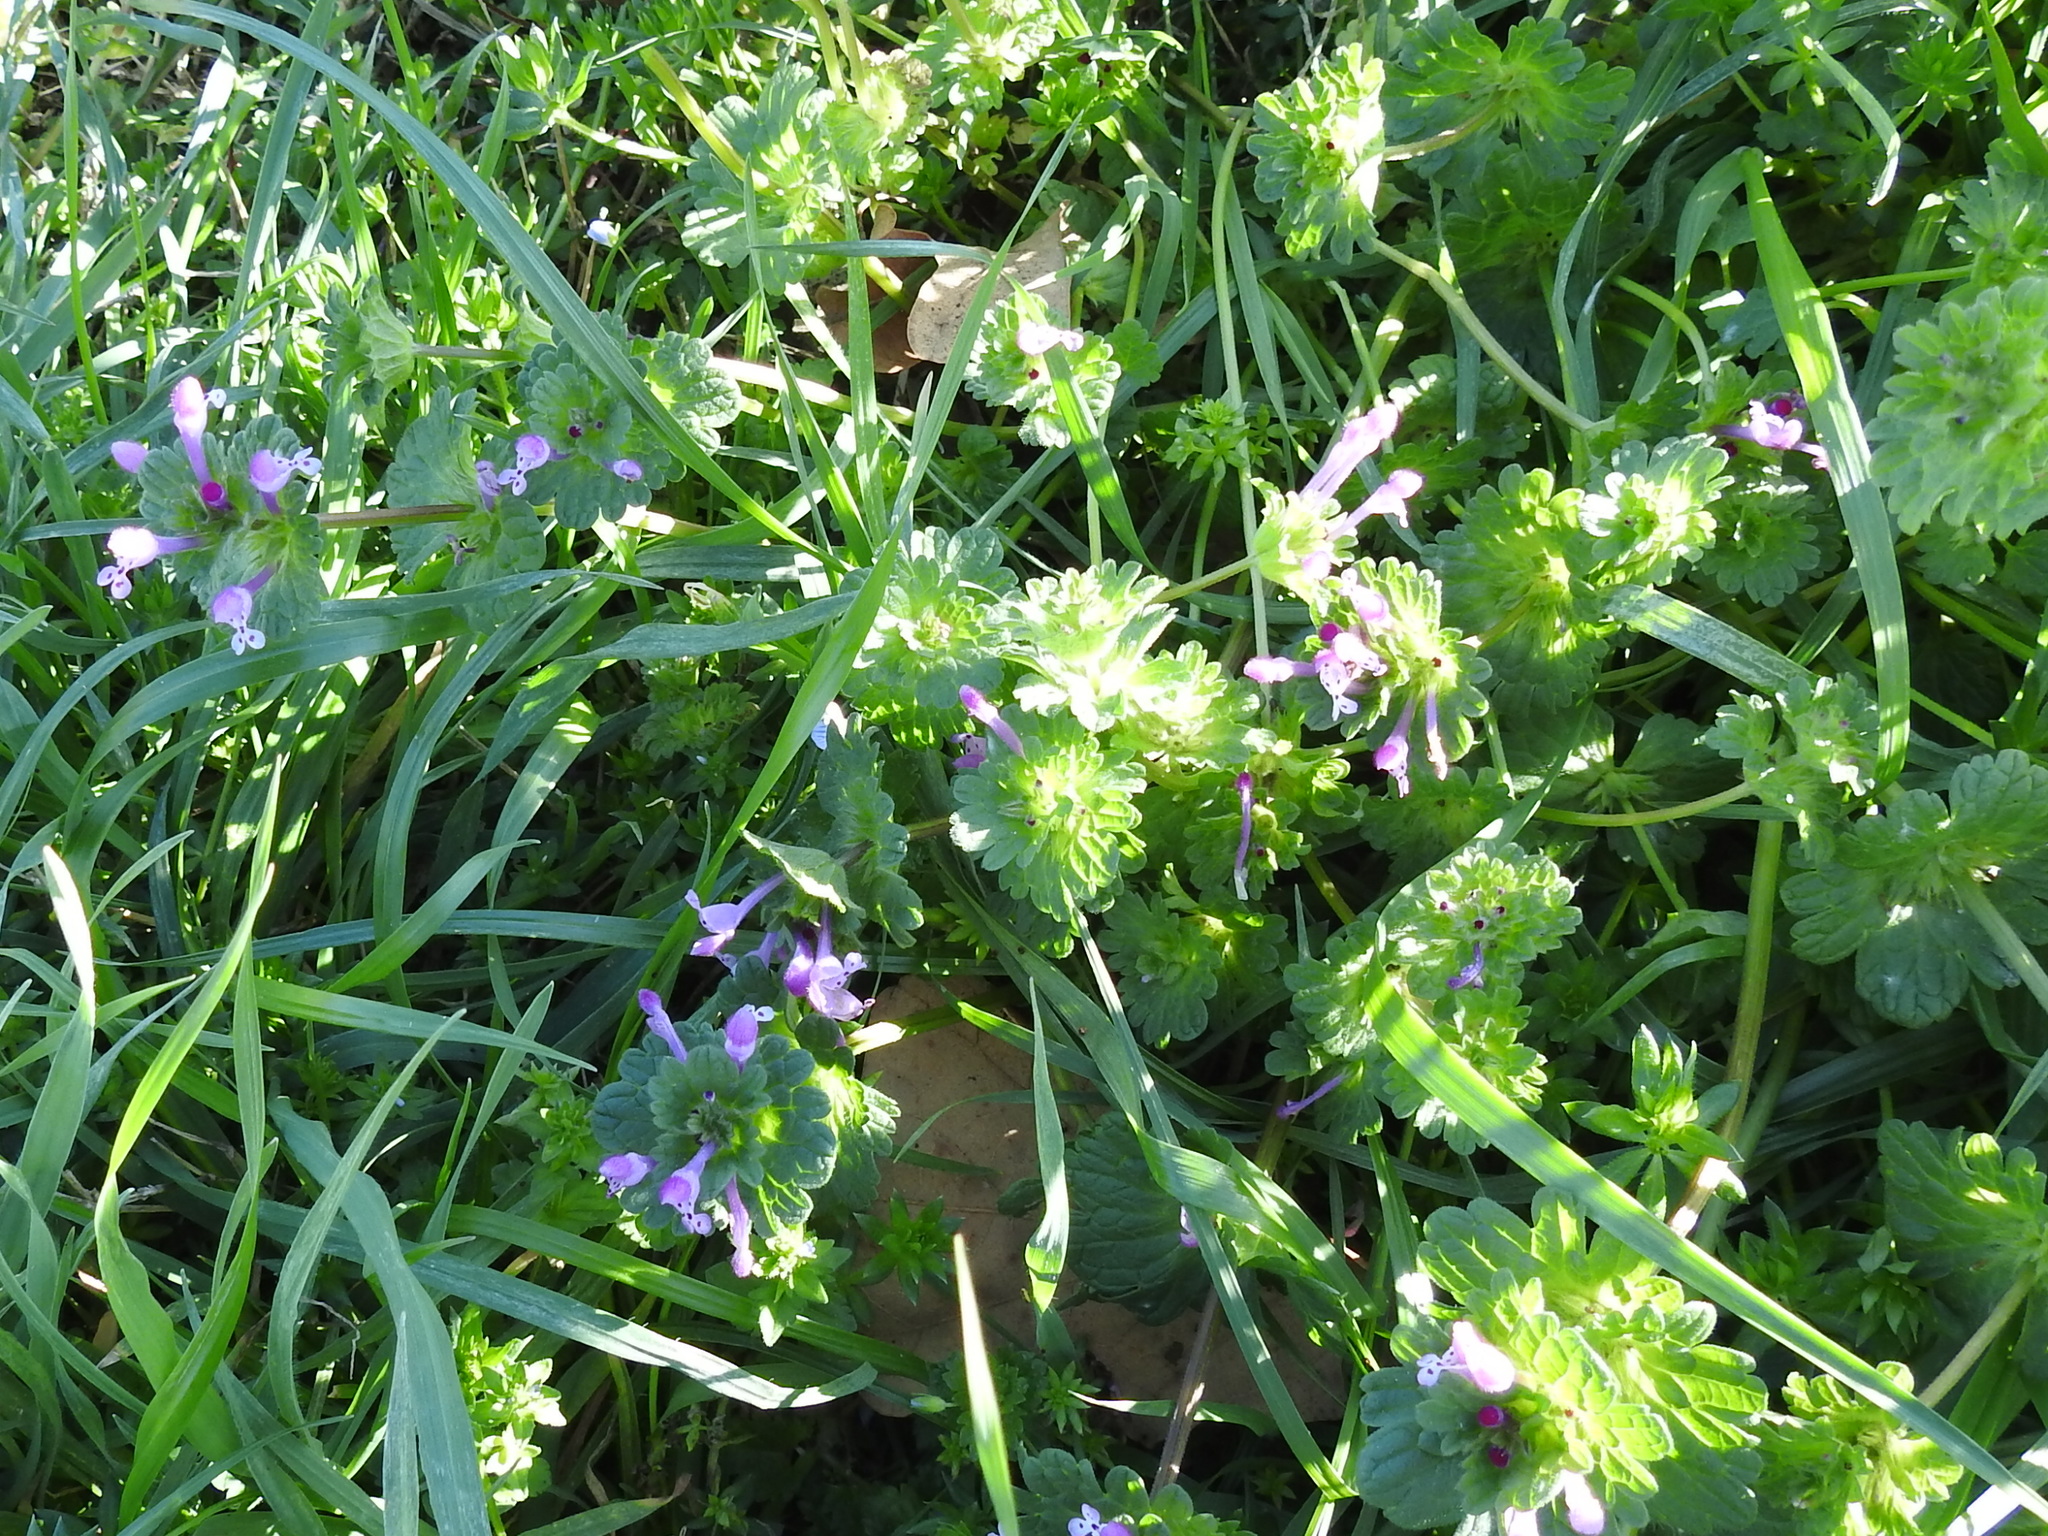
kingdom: Plantae
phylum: Tracheophyta
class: Magnoliopsida
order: Lamiales
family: Lamiaceae
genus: Lamium
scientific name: Lamium amplexicaule
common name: Henbit dead-nettle
